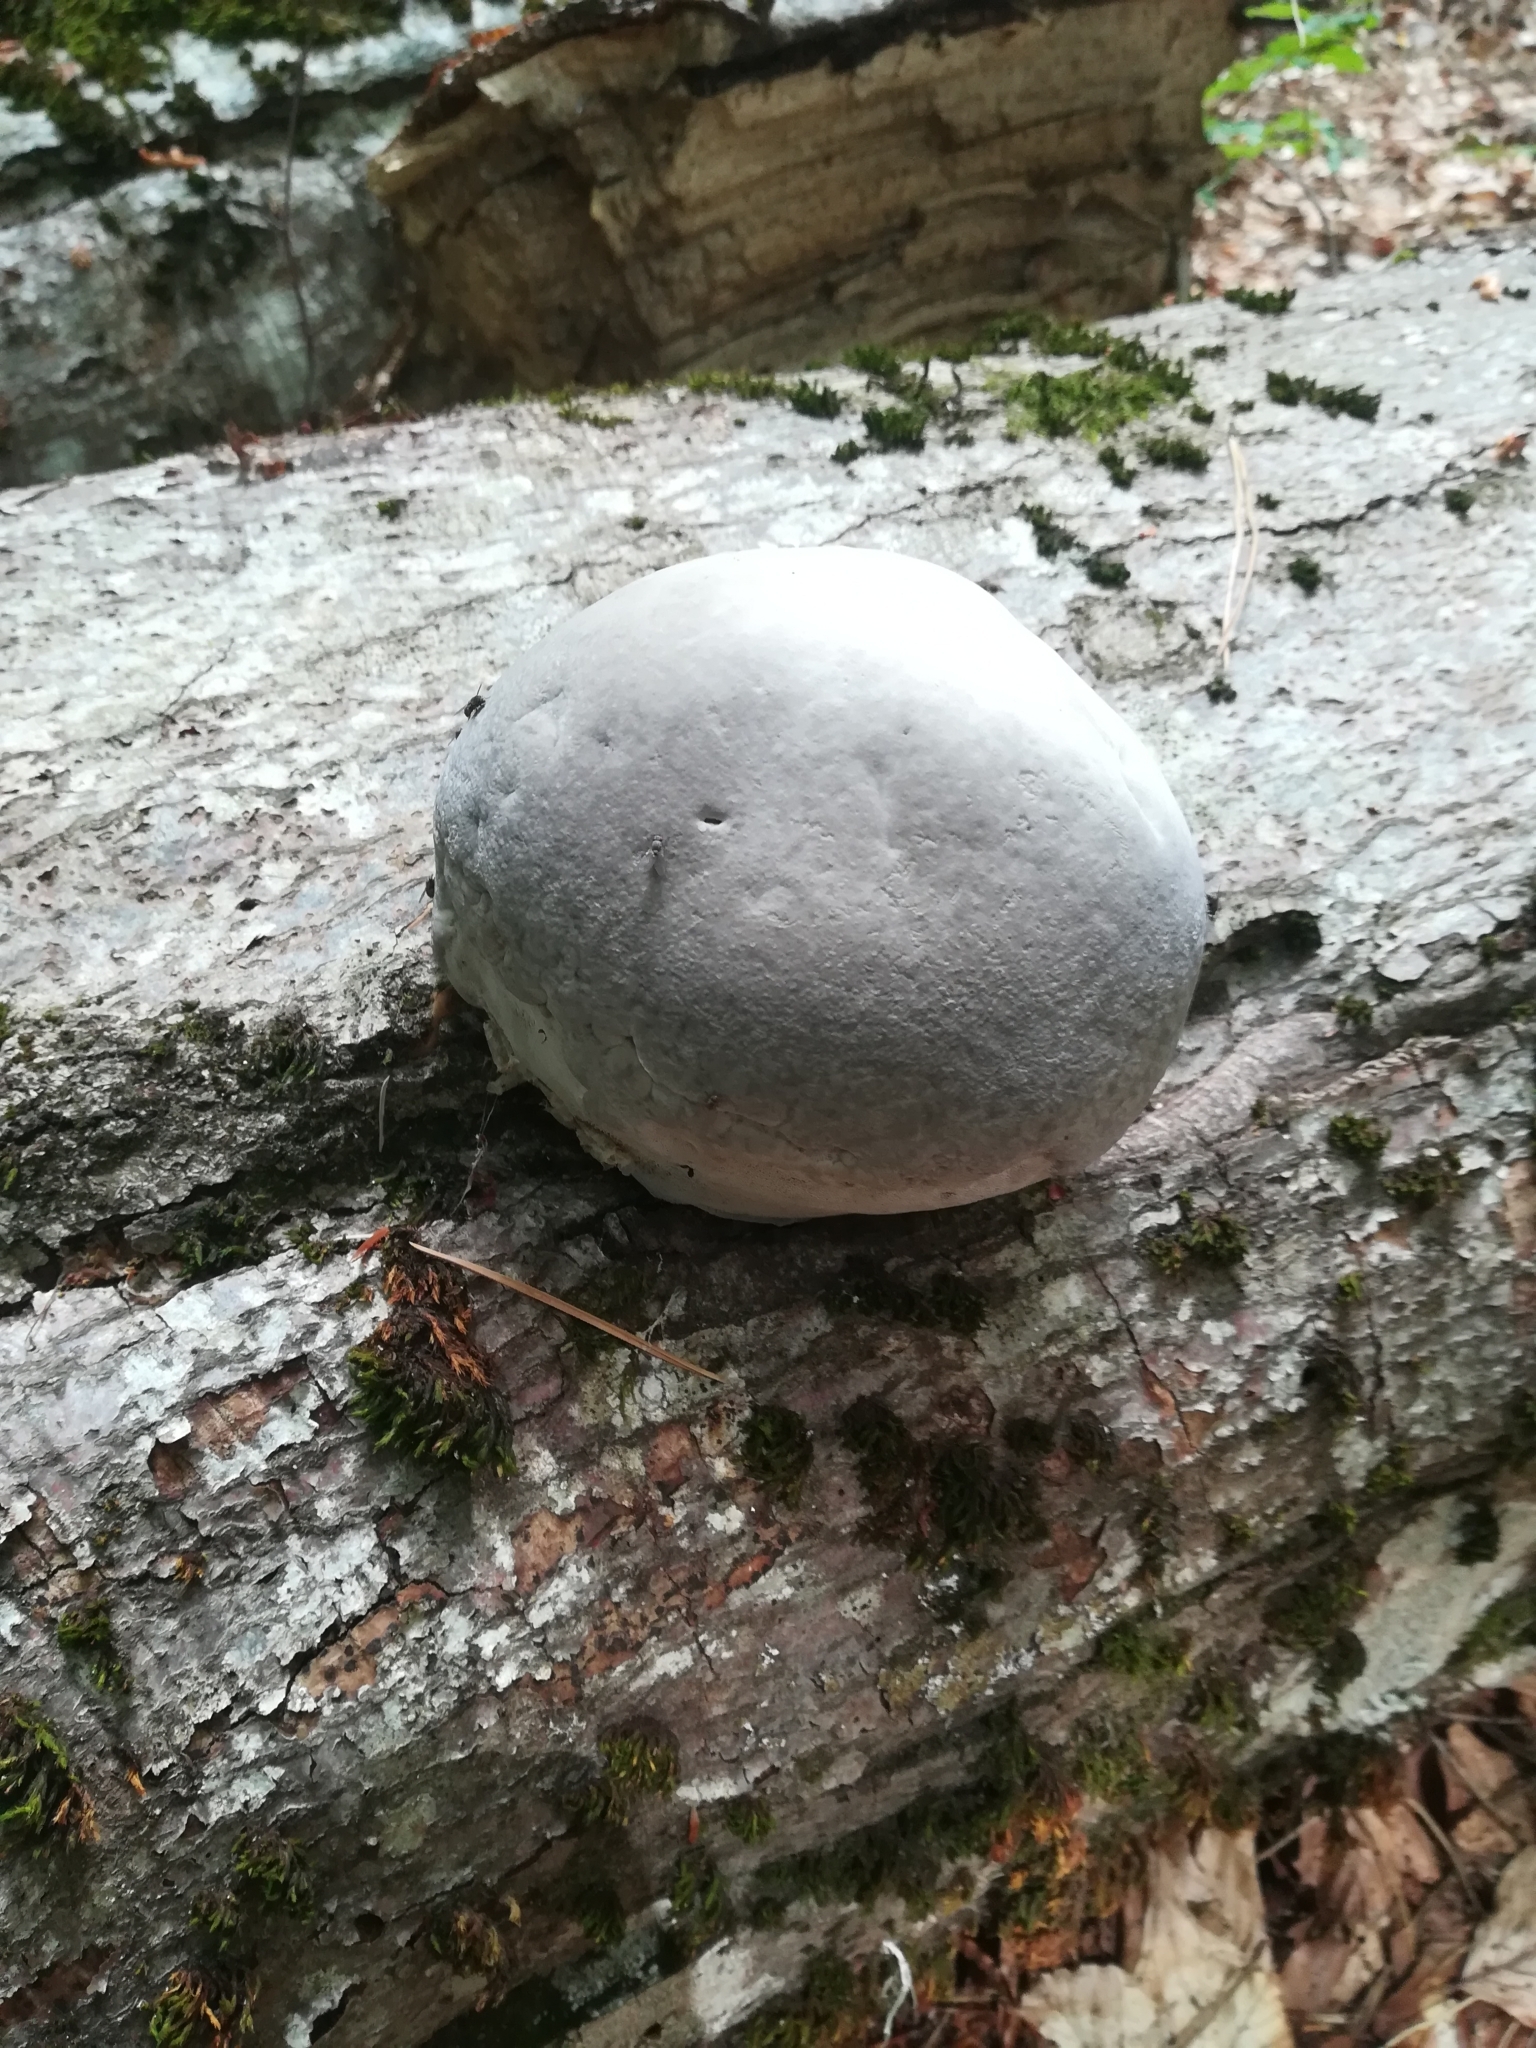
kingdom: Fungi
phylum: Basidiomycota
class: Agaricomycetes
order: Polyporales
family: Polyporaceae
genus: Fomes
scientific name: Fomes fomentarius
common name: Hoof fungus
